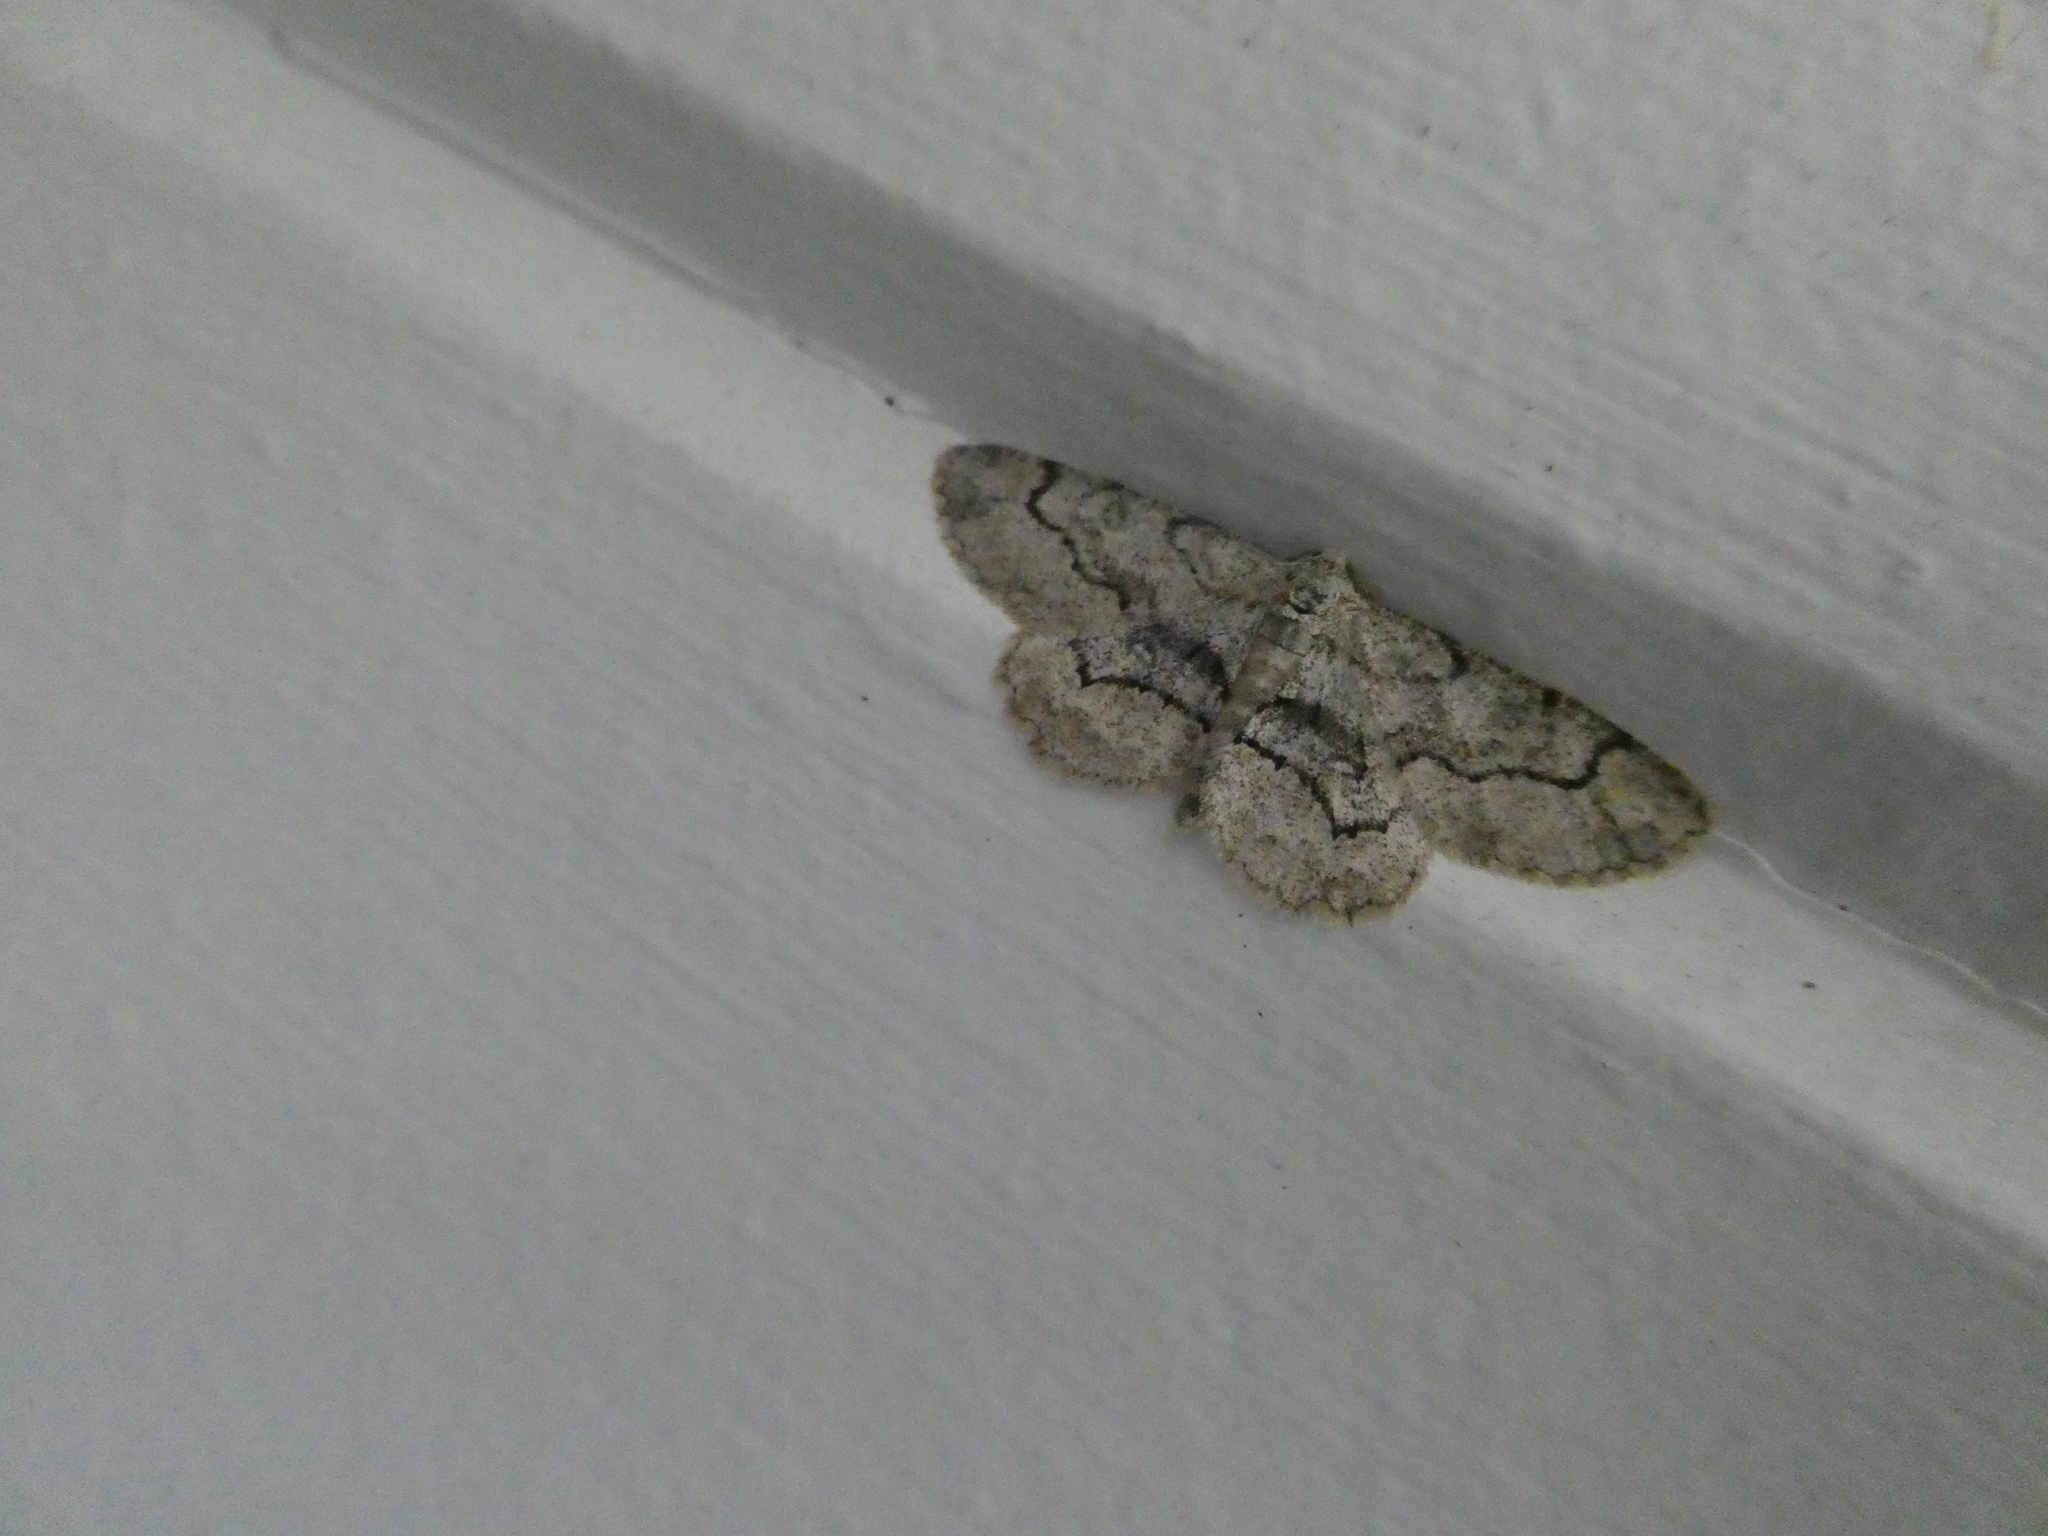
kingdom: Animalia
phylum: Arthropoda
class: Insecta
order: Lepidoptera
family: Geometridae
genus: Iridopsis
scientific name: Iridopsis larvaria
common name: Bent-line gray
